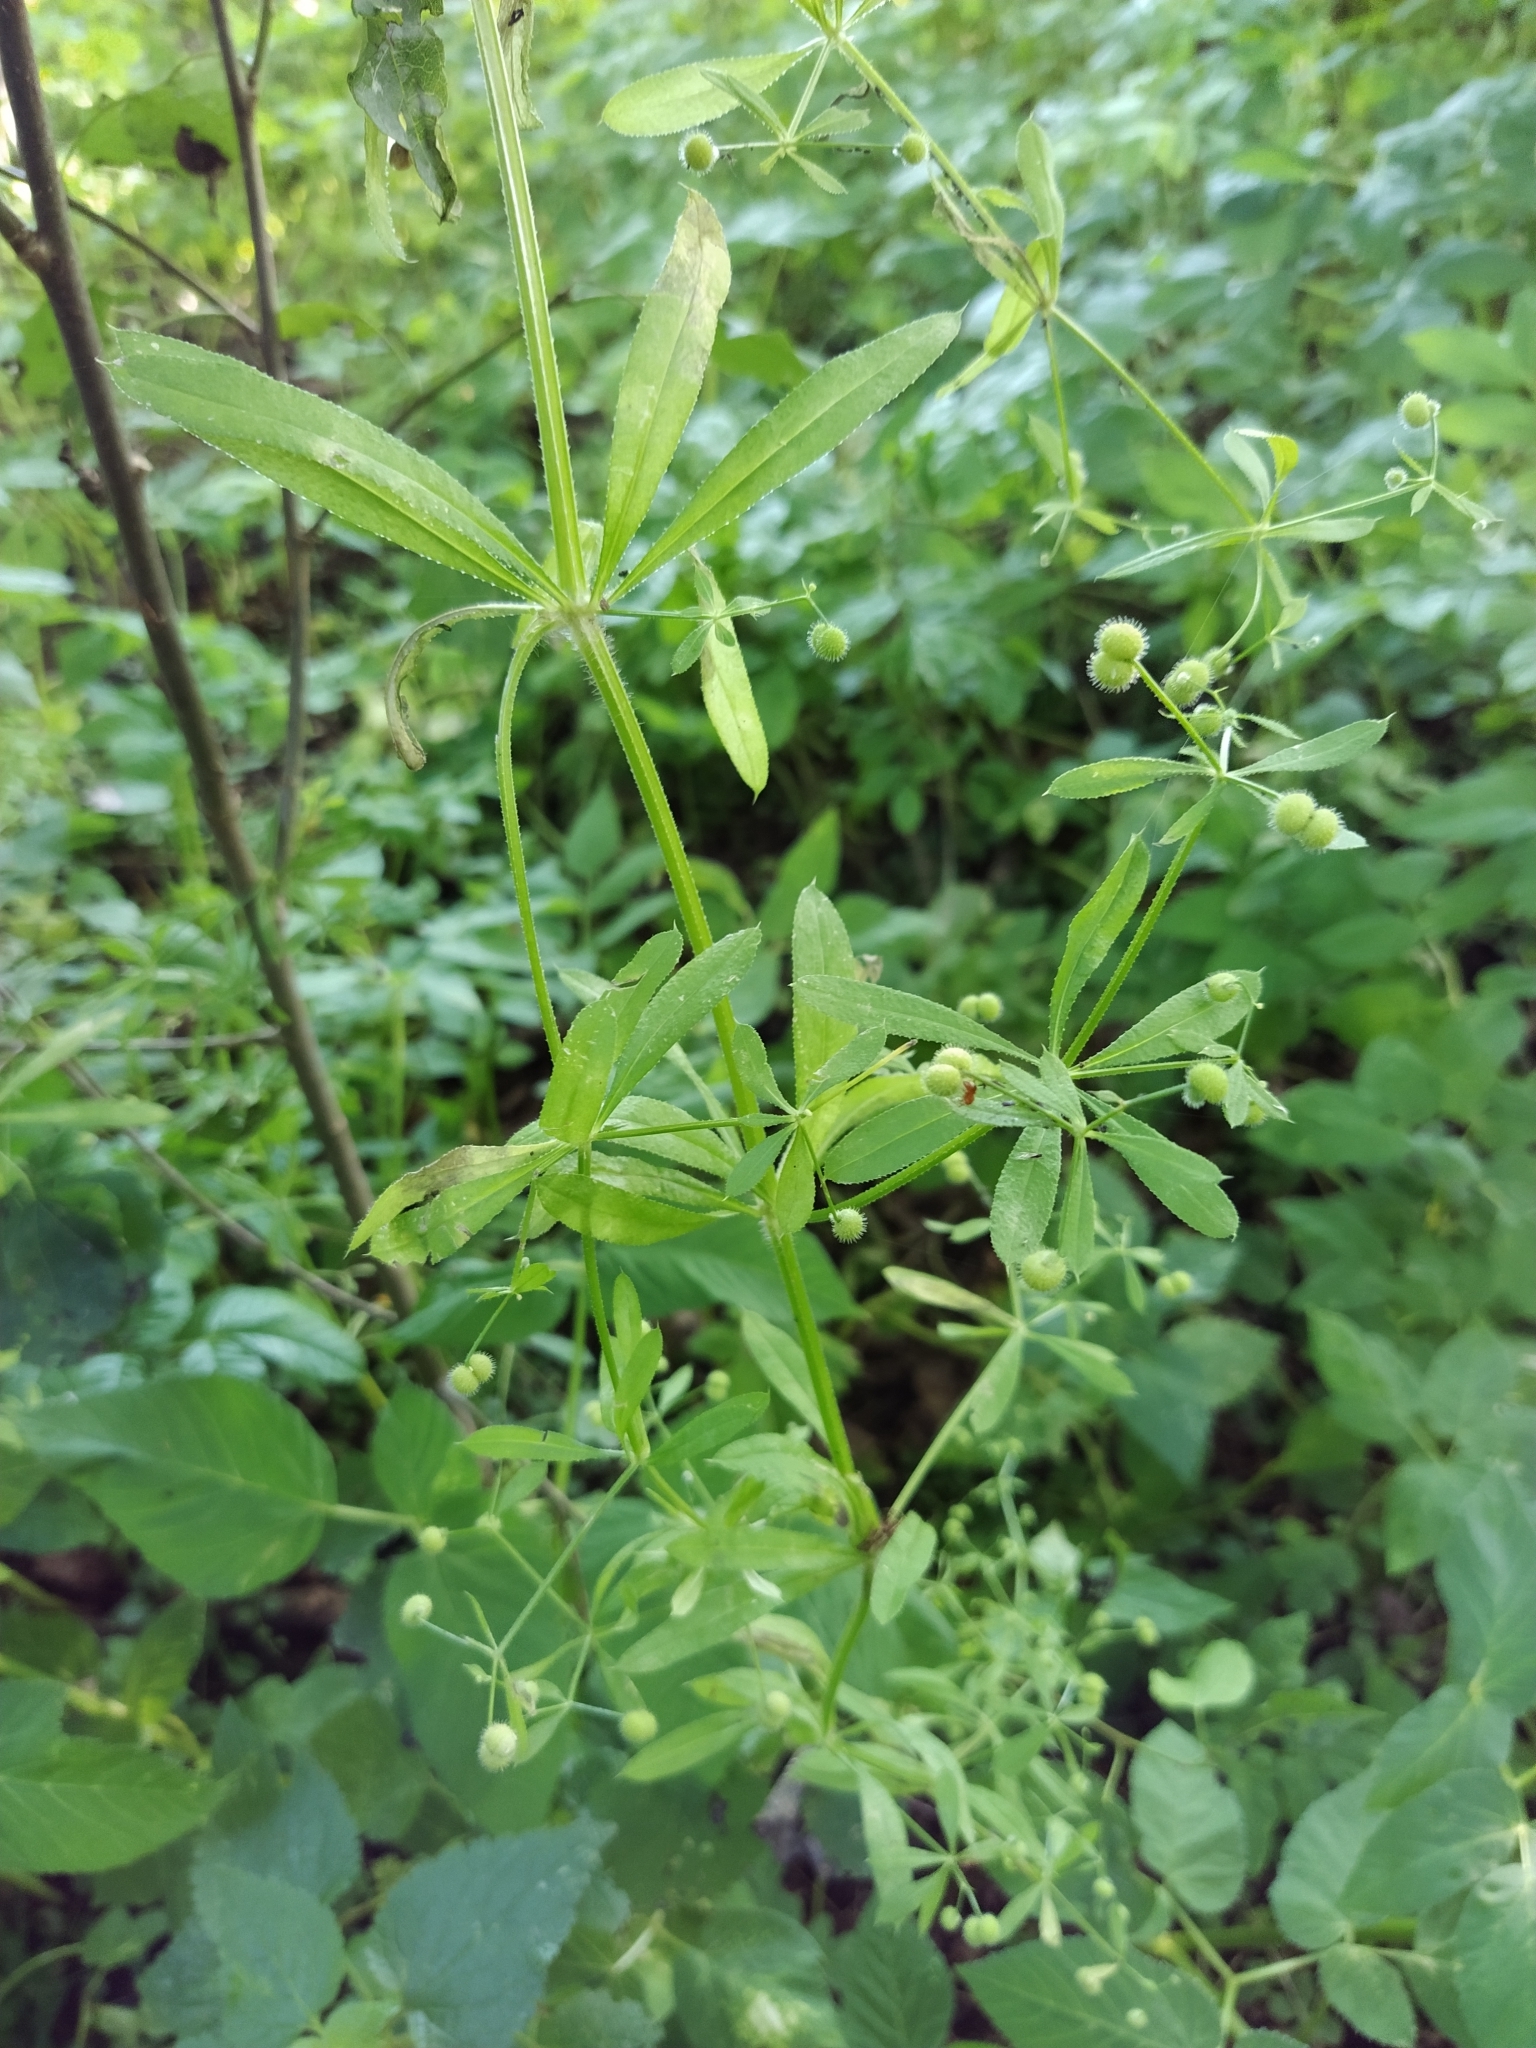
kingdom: Plantae
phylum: Tracheophyta
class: Magnoliopsida
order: Gentianales
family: Rubiaceae
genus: Galium
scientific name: Galium aparine
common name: Cleavers
